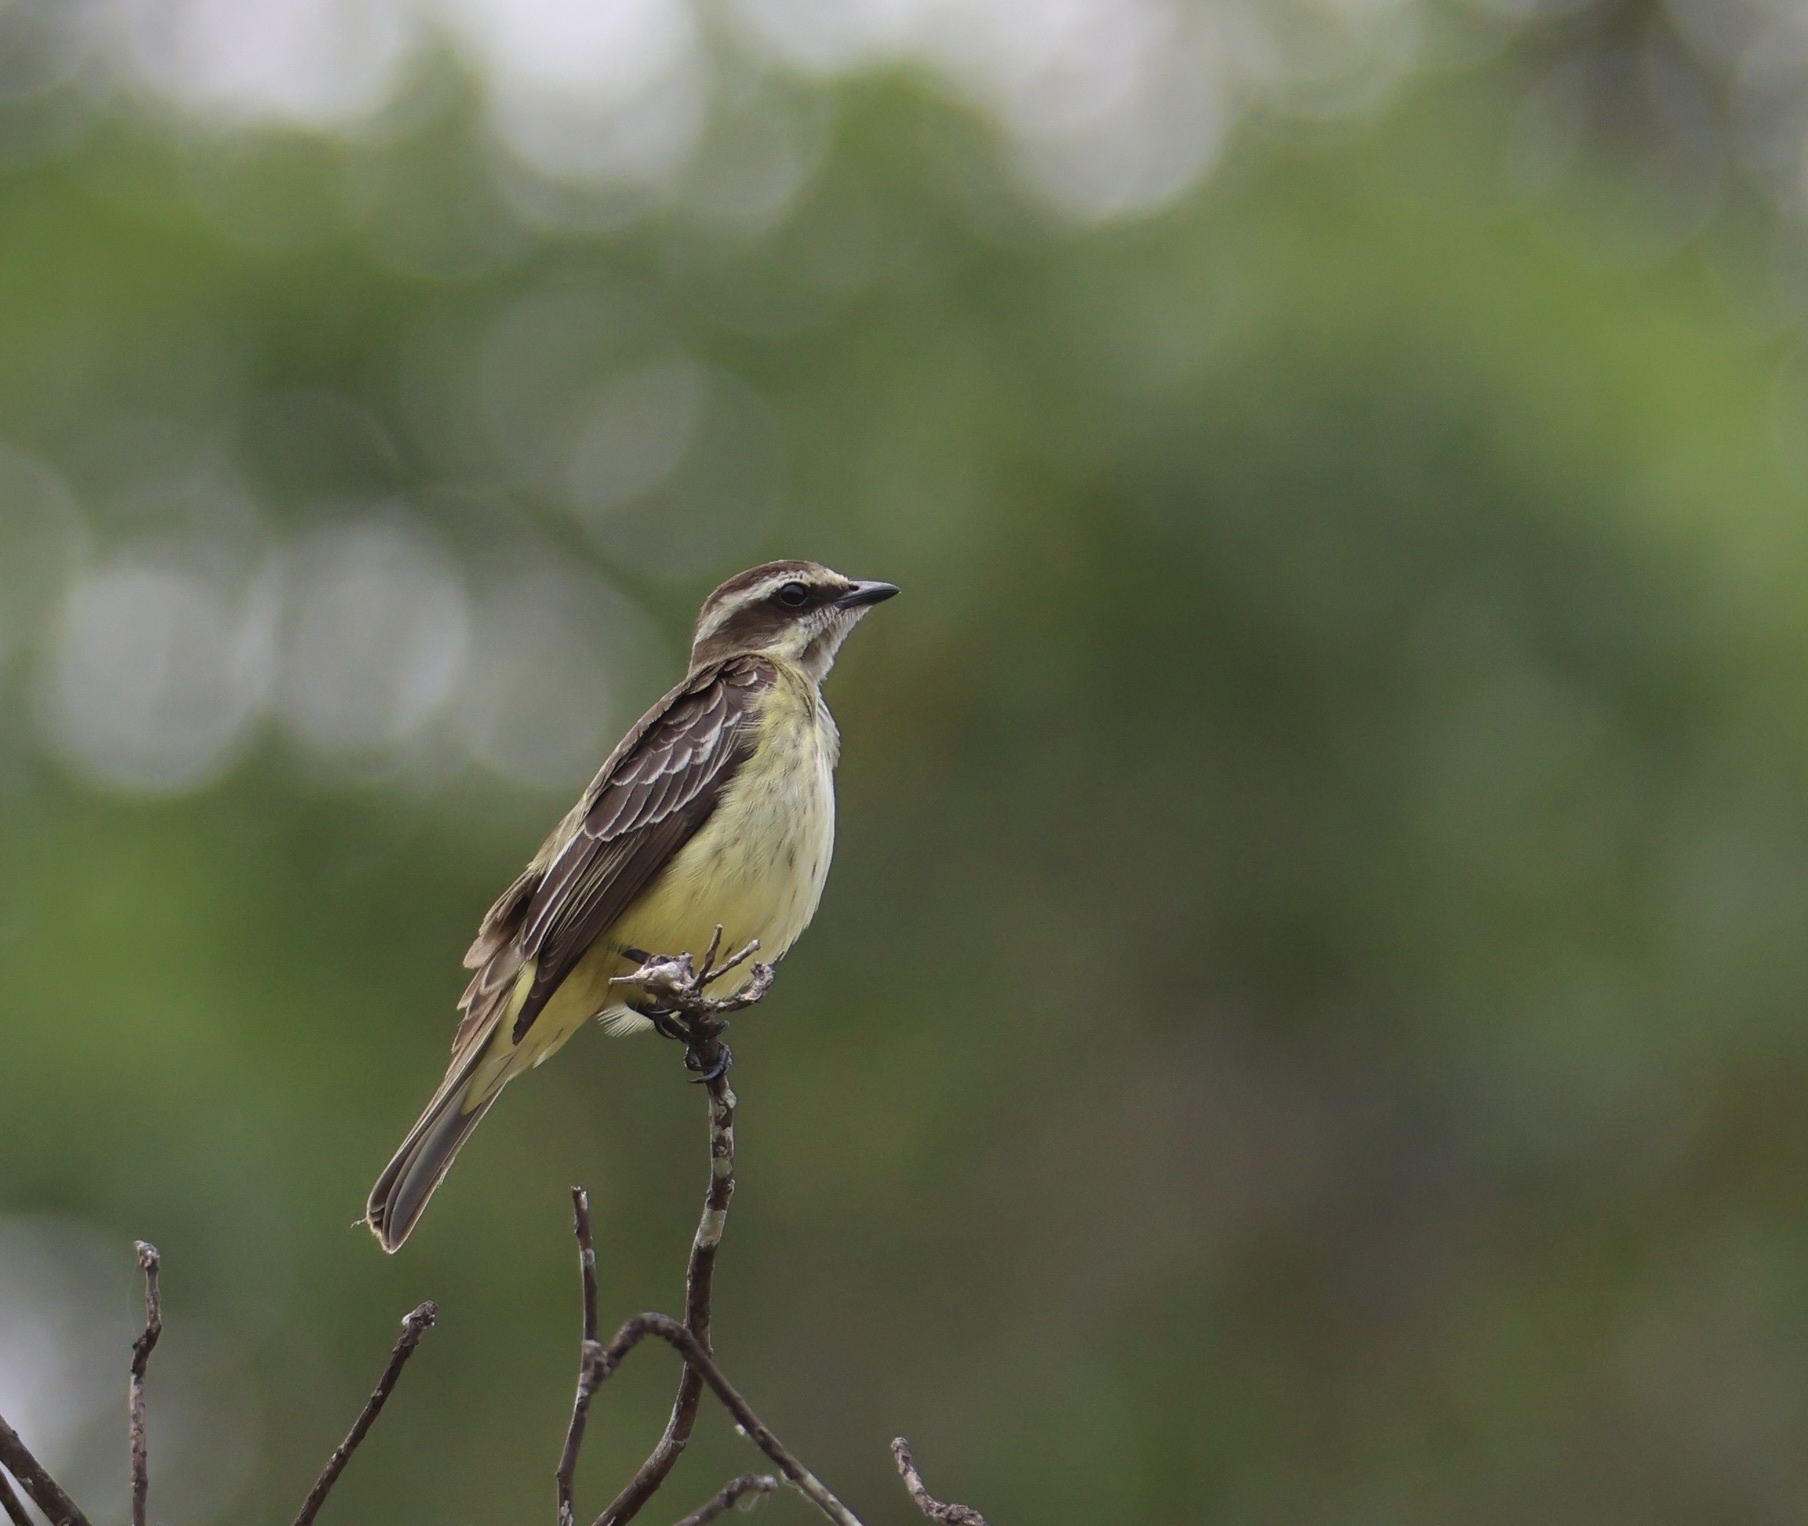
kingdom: Animalia
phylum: Chordata
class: Aves
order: Passeriformes
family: Tyrannidae
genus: Legatus
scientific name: Legatus leucophaius
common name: Piratic flycatcher
